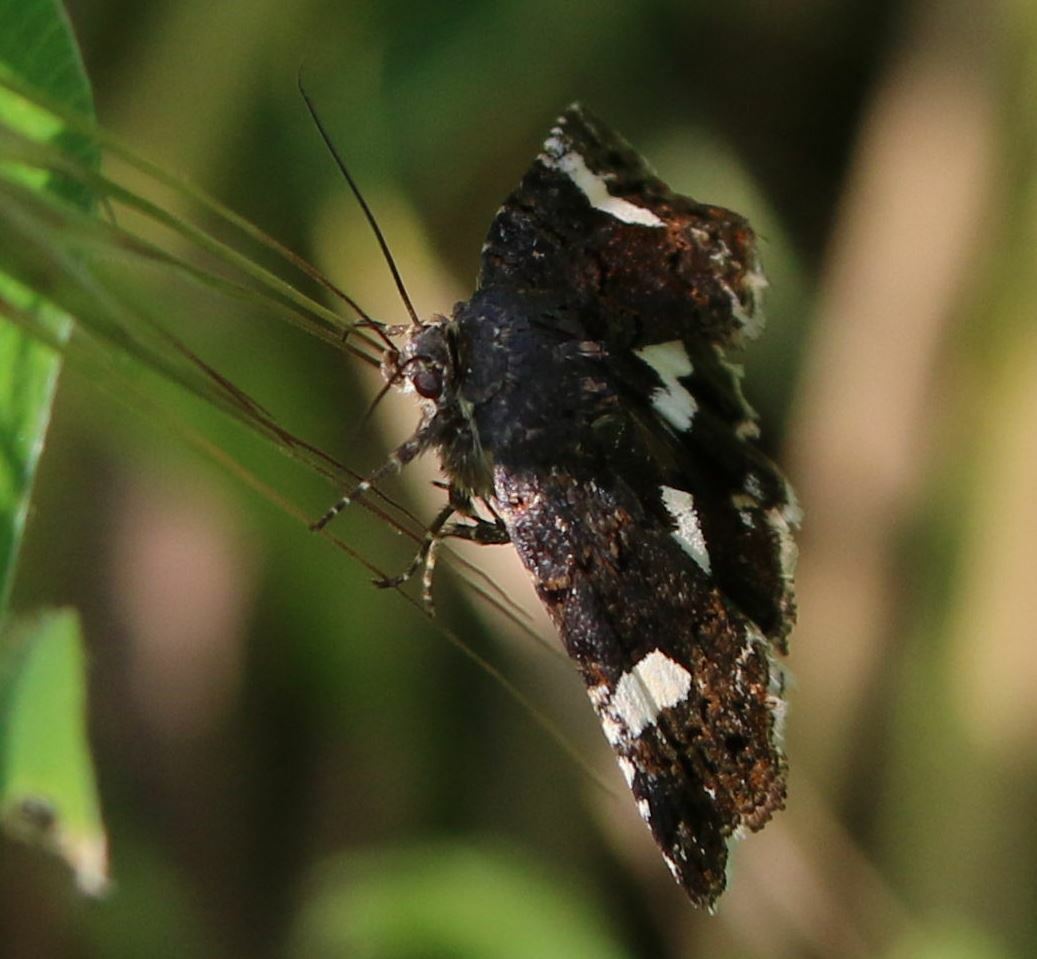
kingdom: Animalia
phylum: Arthropoda
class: Insecta
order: Lepidoptera
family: Erebidae
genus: Tyta
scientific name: Tyta luctuosa
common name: Four-spotted
